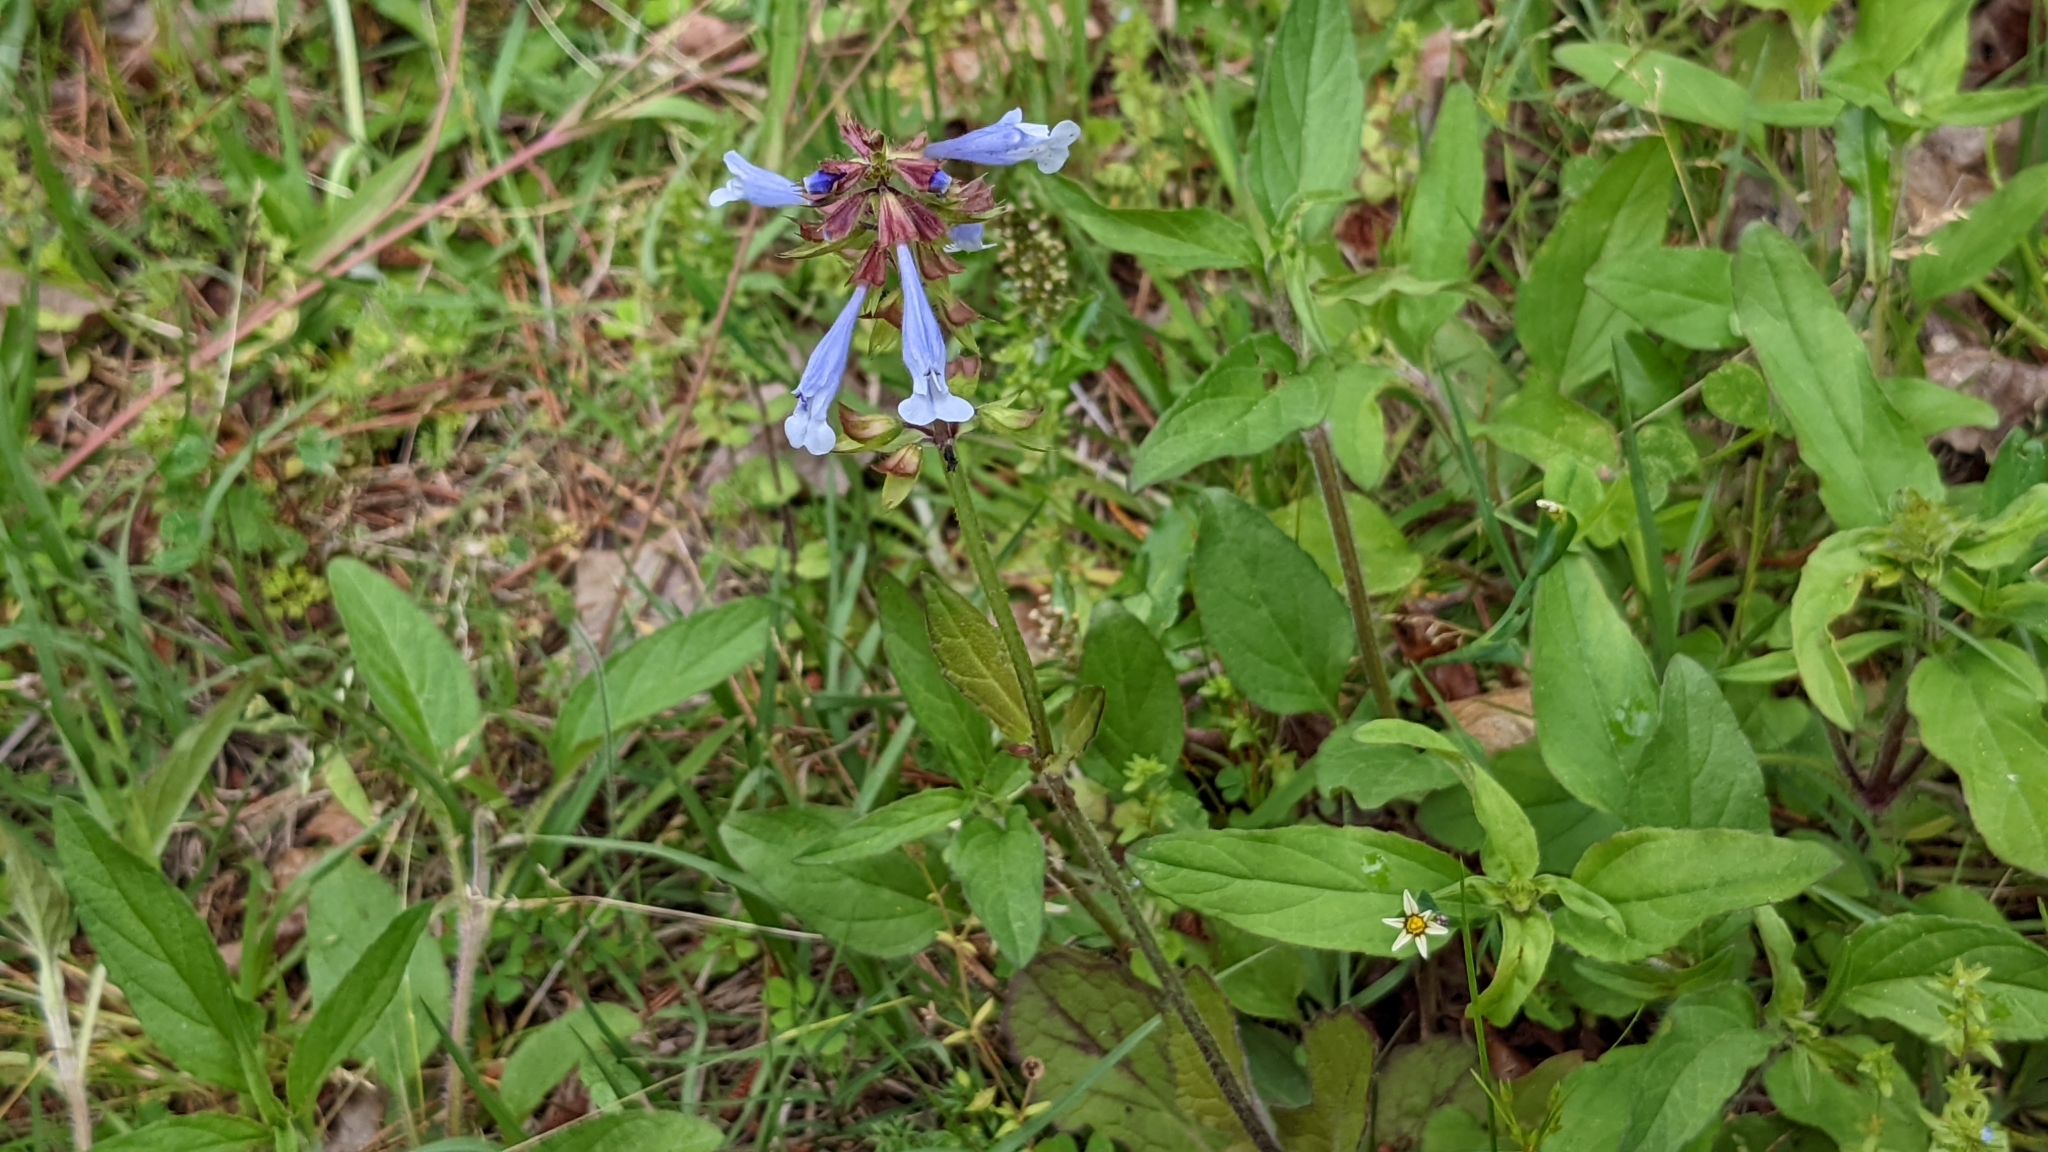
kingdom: Plantae
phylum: Tracheophyta
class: Magnoliopsida
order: Lamiales
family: Lamiaceae
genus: Salvia
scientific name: Salvia lyrata
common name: Cancerweed
